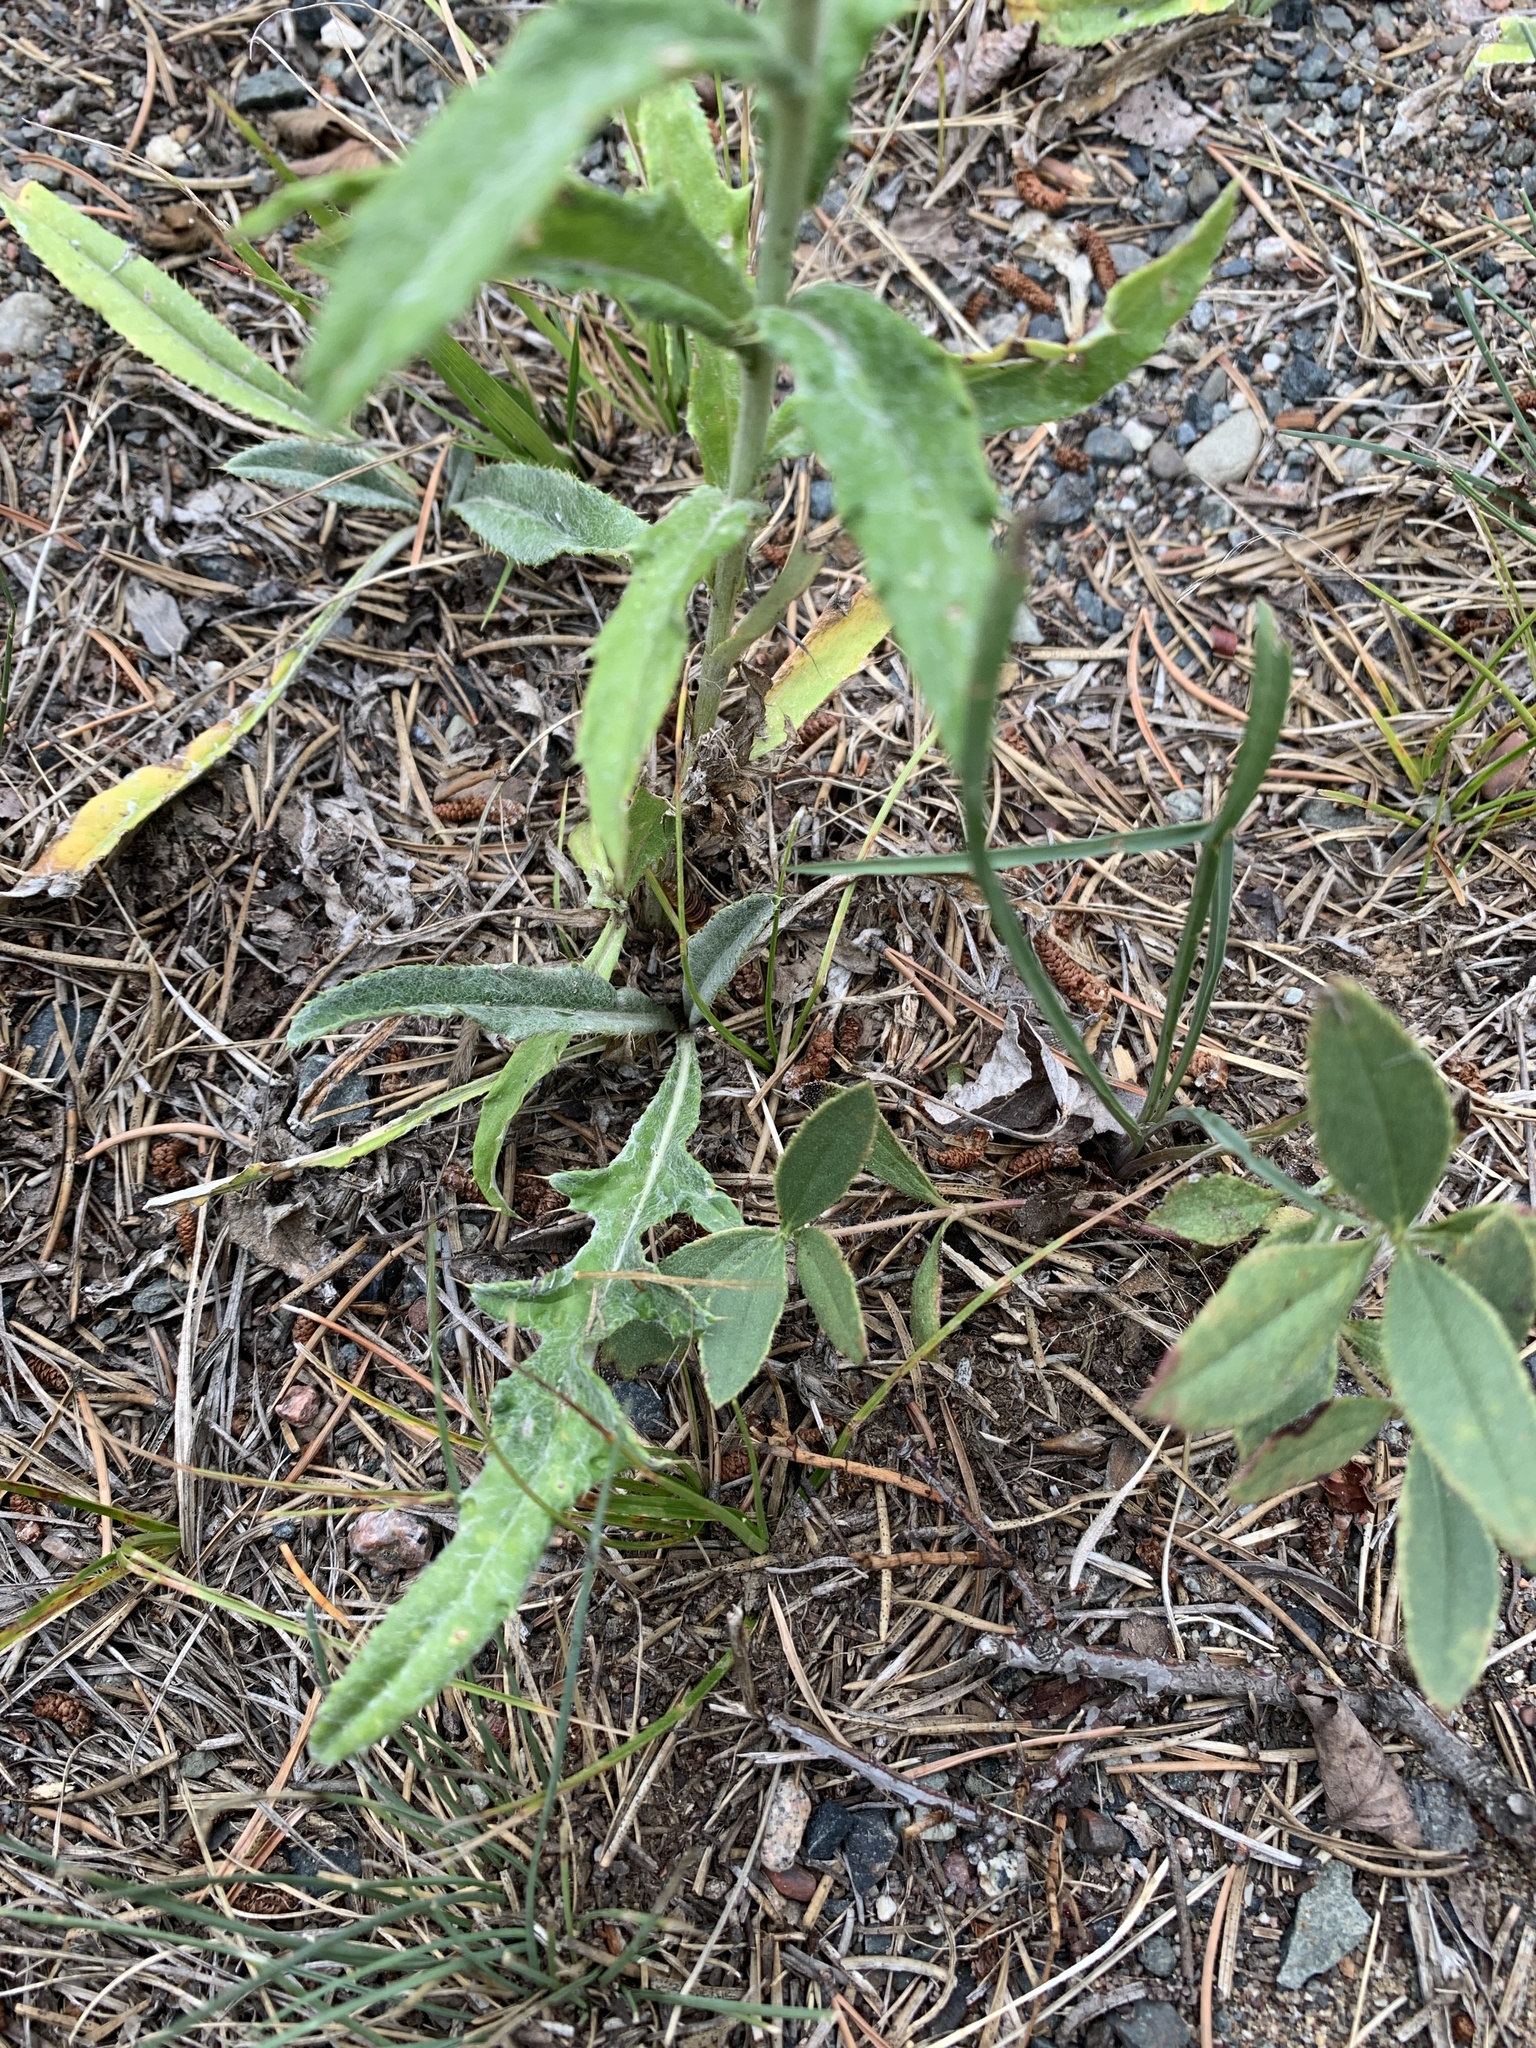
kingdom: Plantae
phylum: Tracheophyta
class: Magnoliopsida
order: Asterales
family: Asteraceae
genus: Cirsium
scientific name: Cirsium flodmanii
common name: Flodman's thistle
